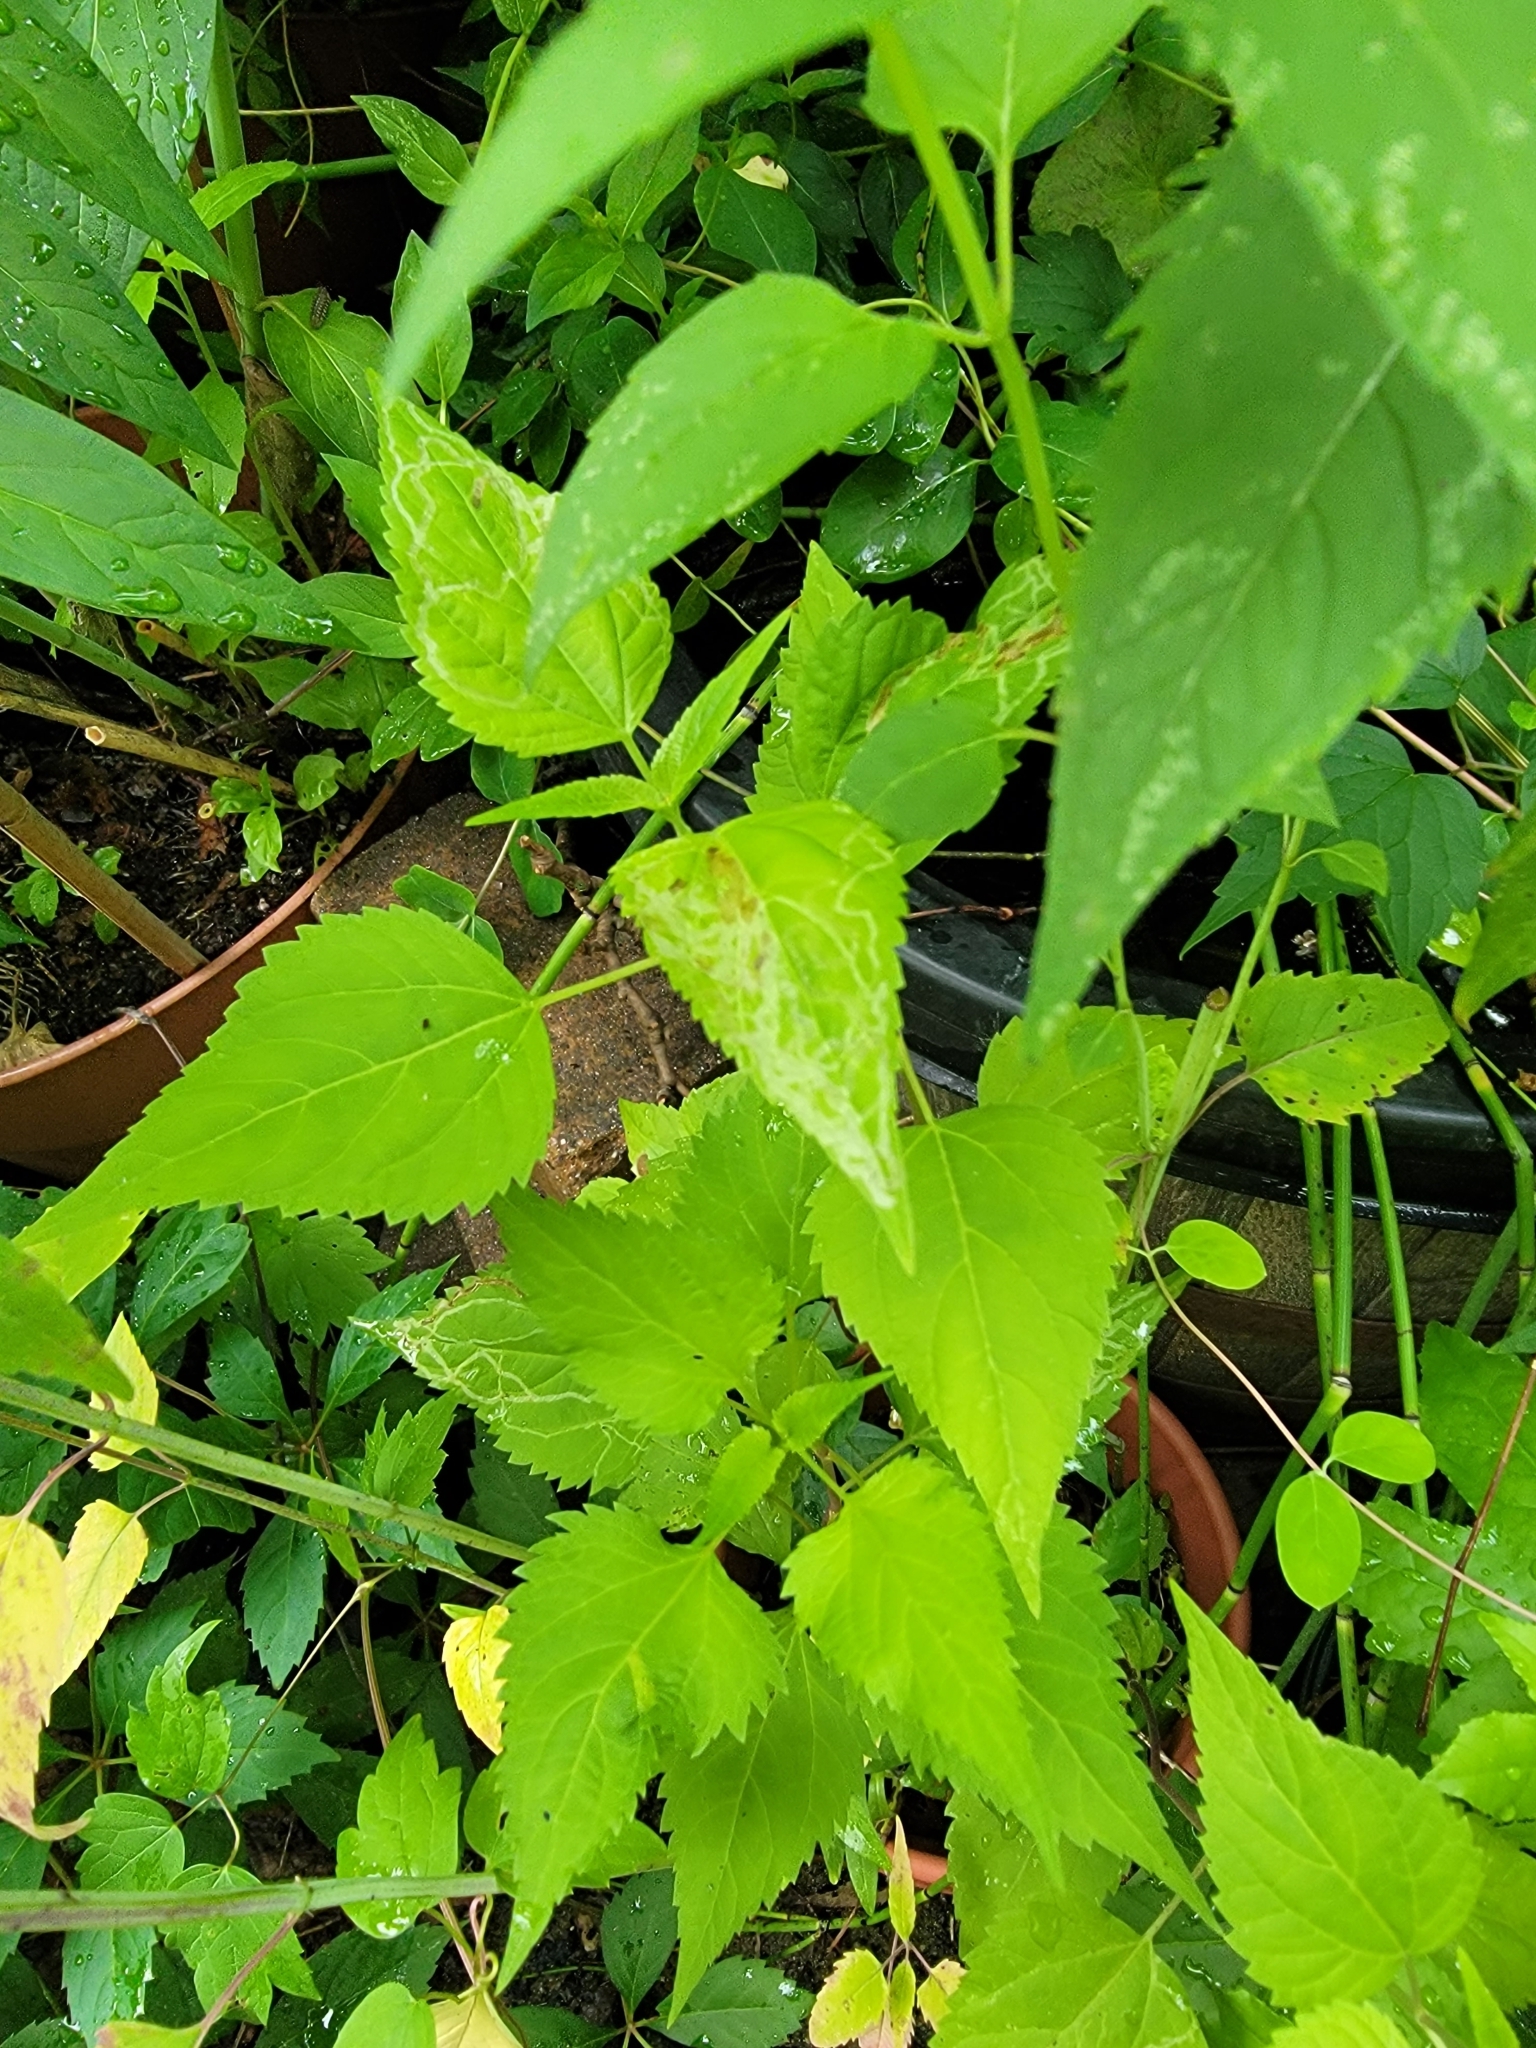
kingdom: Plantae
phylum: Tracheophyta
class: Magnoliopsida
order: Asterales
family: Asteraceae
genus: Ageratina
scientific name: Ageratina altissima
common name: White snakeroot
